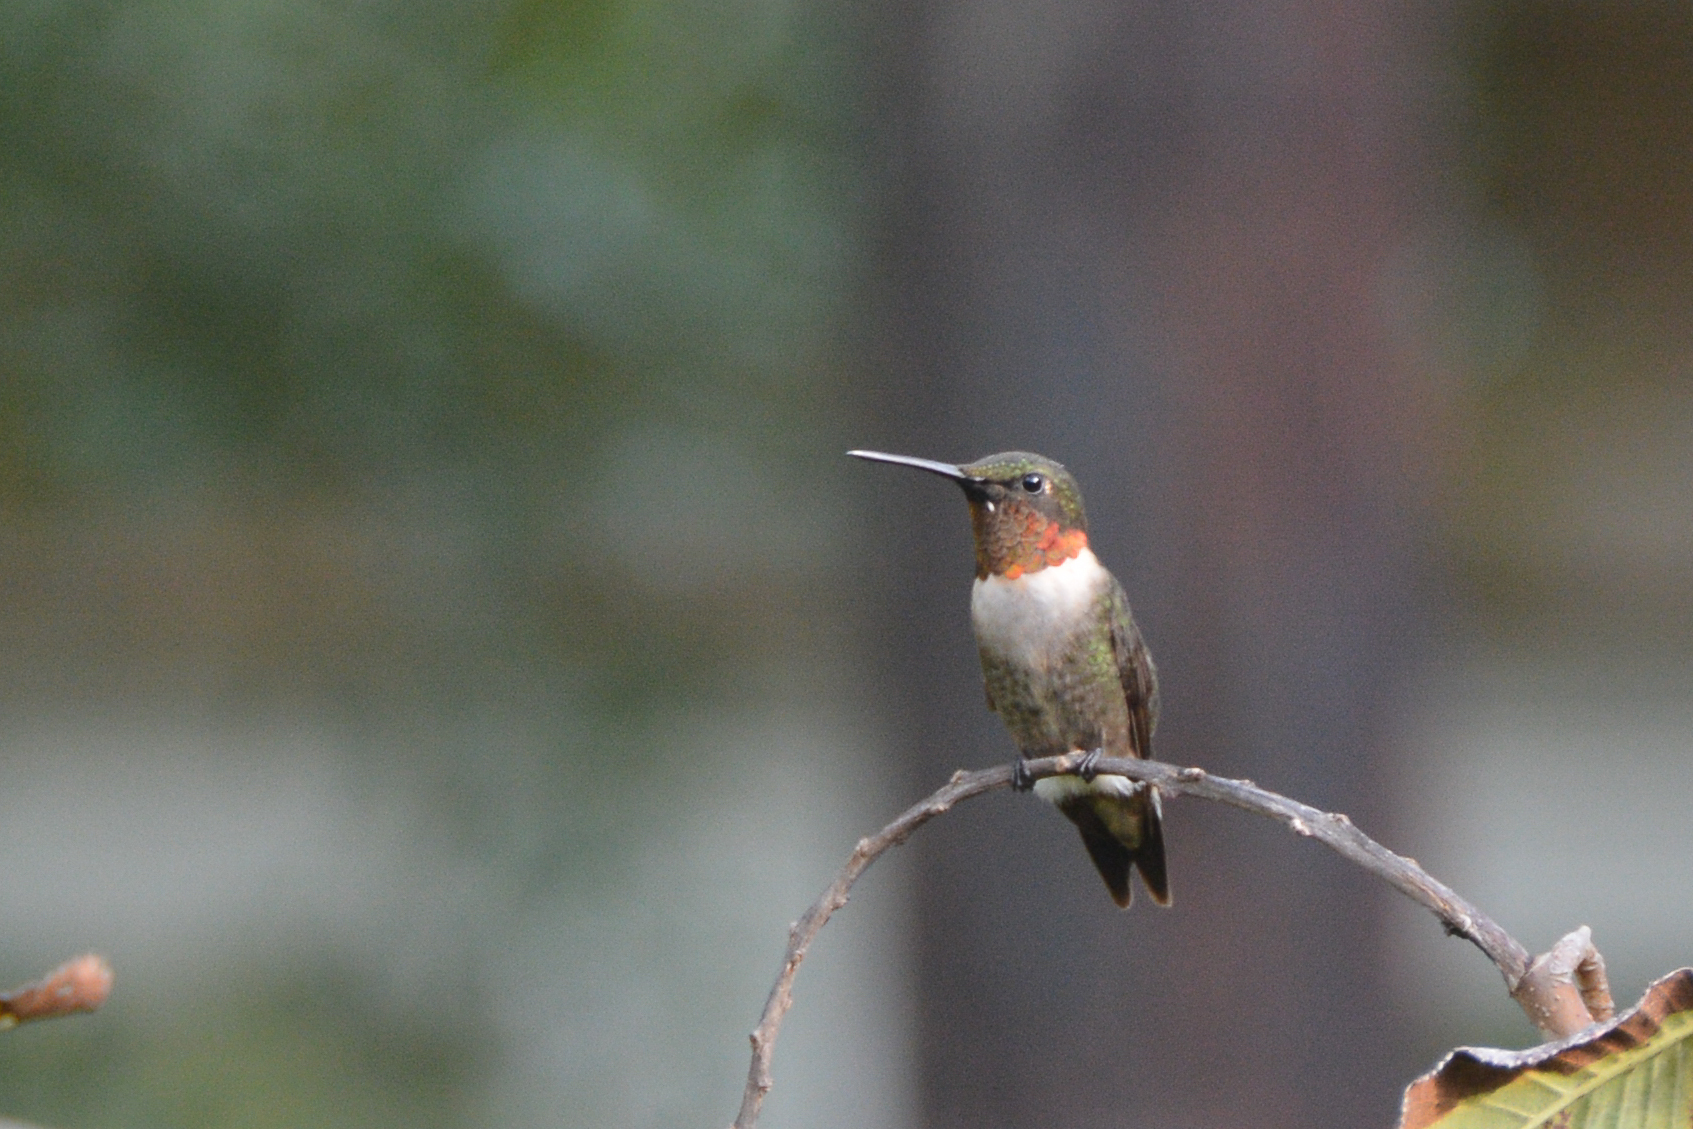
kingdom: Animalia
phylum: Chordata
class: Aves
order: Apodiformes
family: Trochilidae
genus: Archilochus
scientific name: Archilochus colubris
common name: Ruby-throated hummingbird
